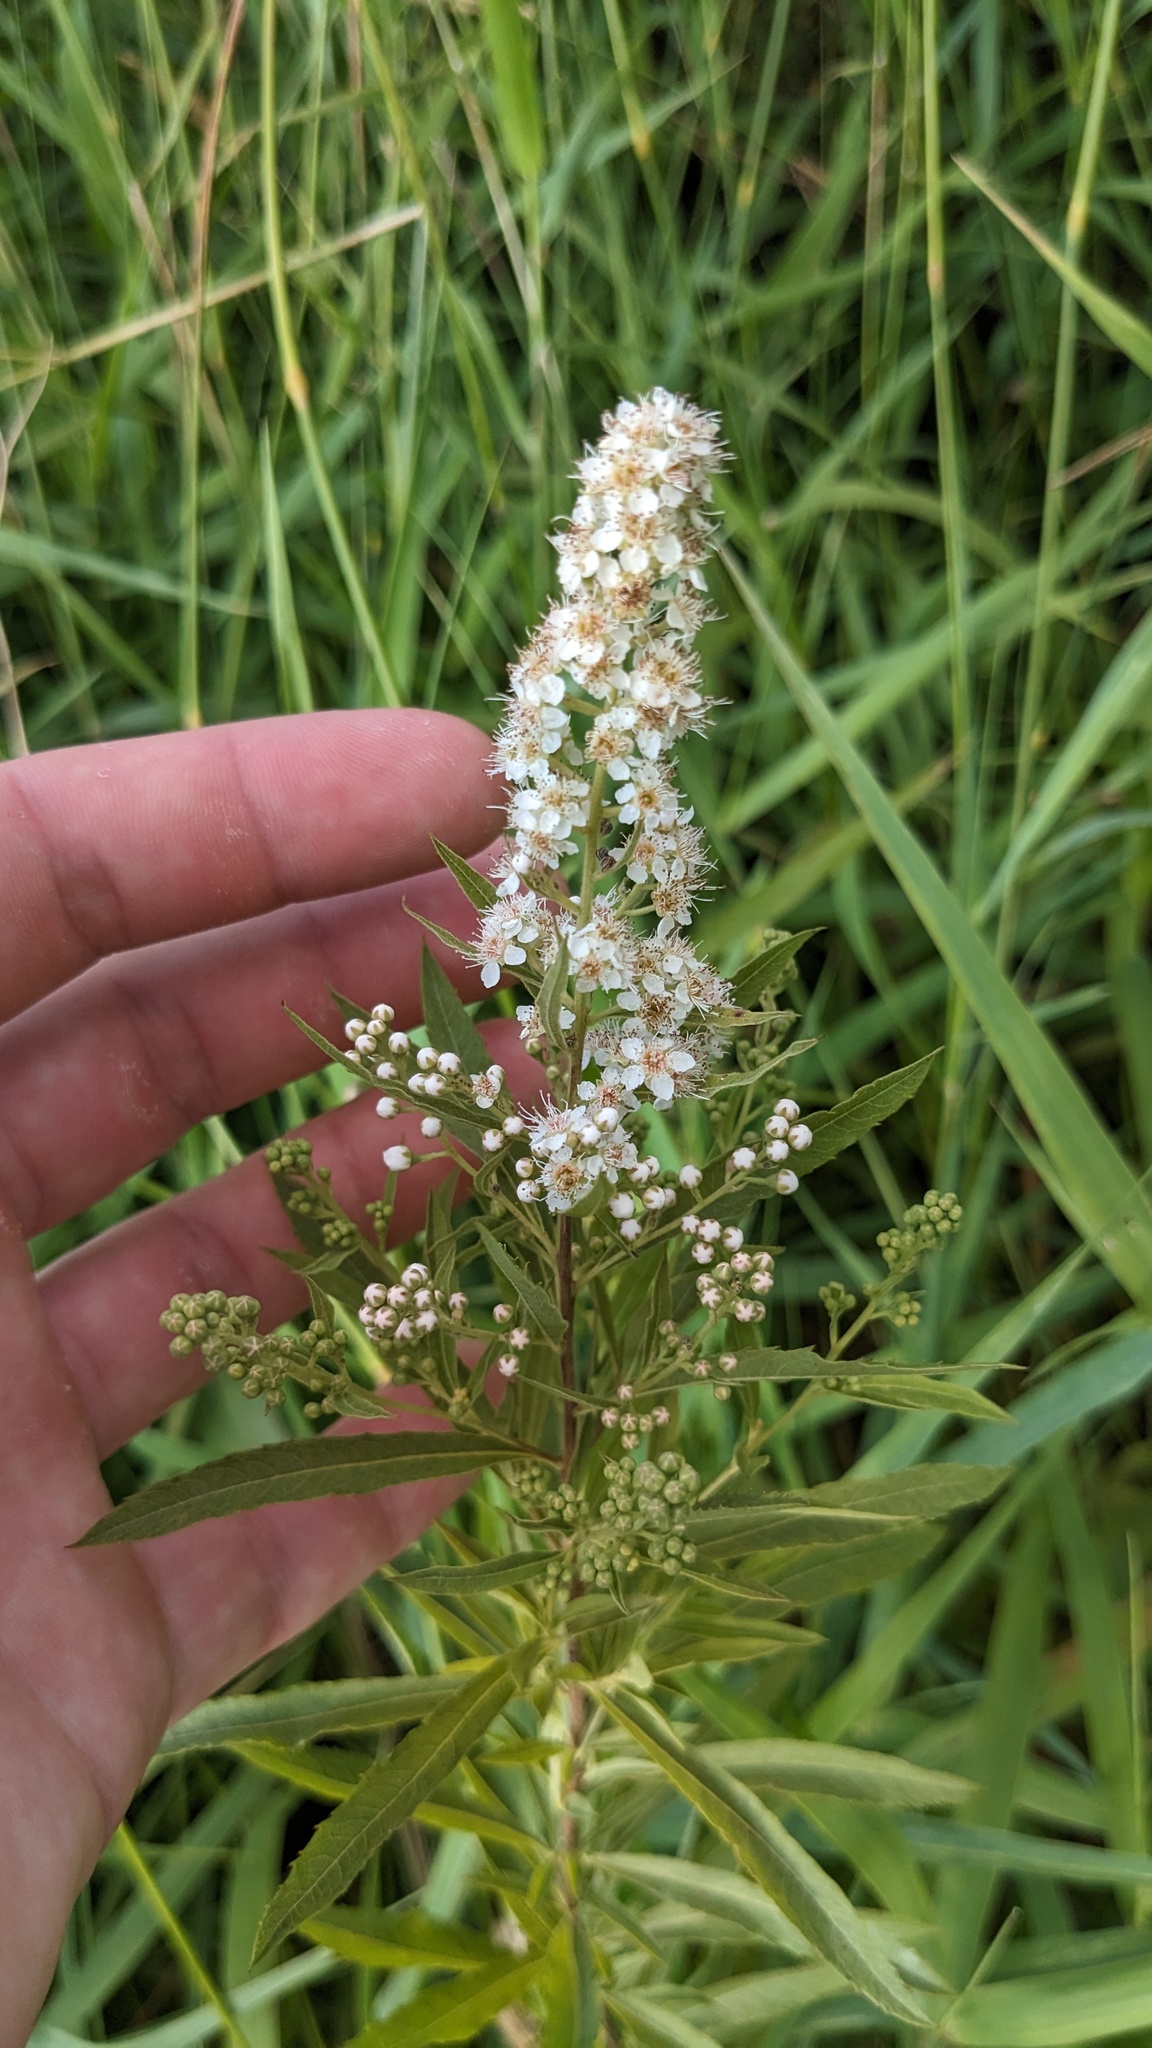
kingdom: Plantae
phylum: Tracheophyta
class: Magnoliopsida
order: Rosales
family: Rosaceae
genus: Spiraea
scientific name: Spiraea alba
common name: Pale bridewort
